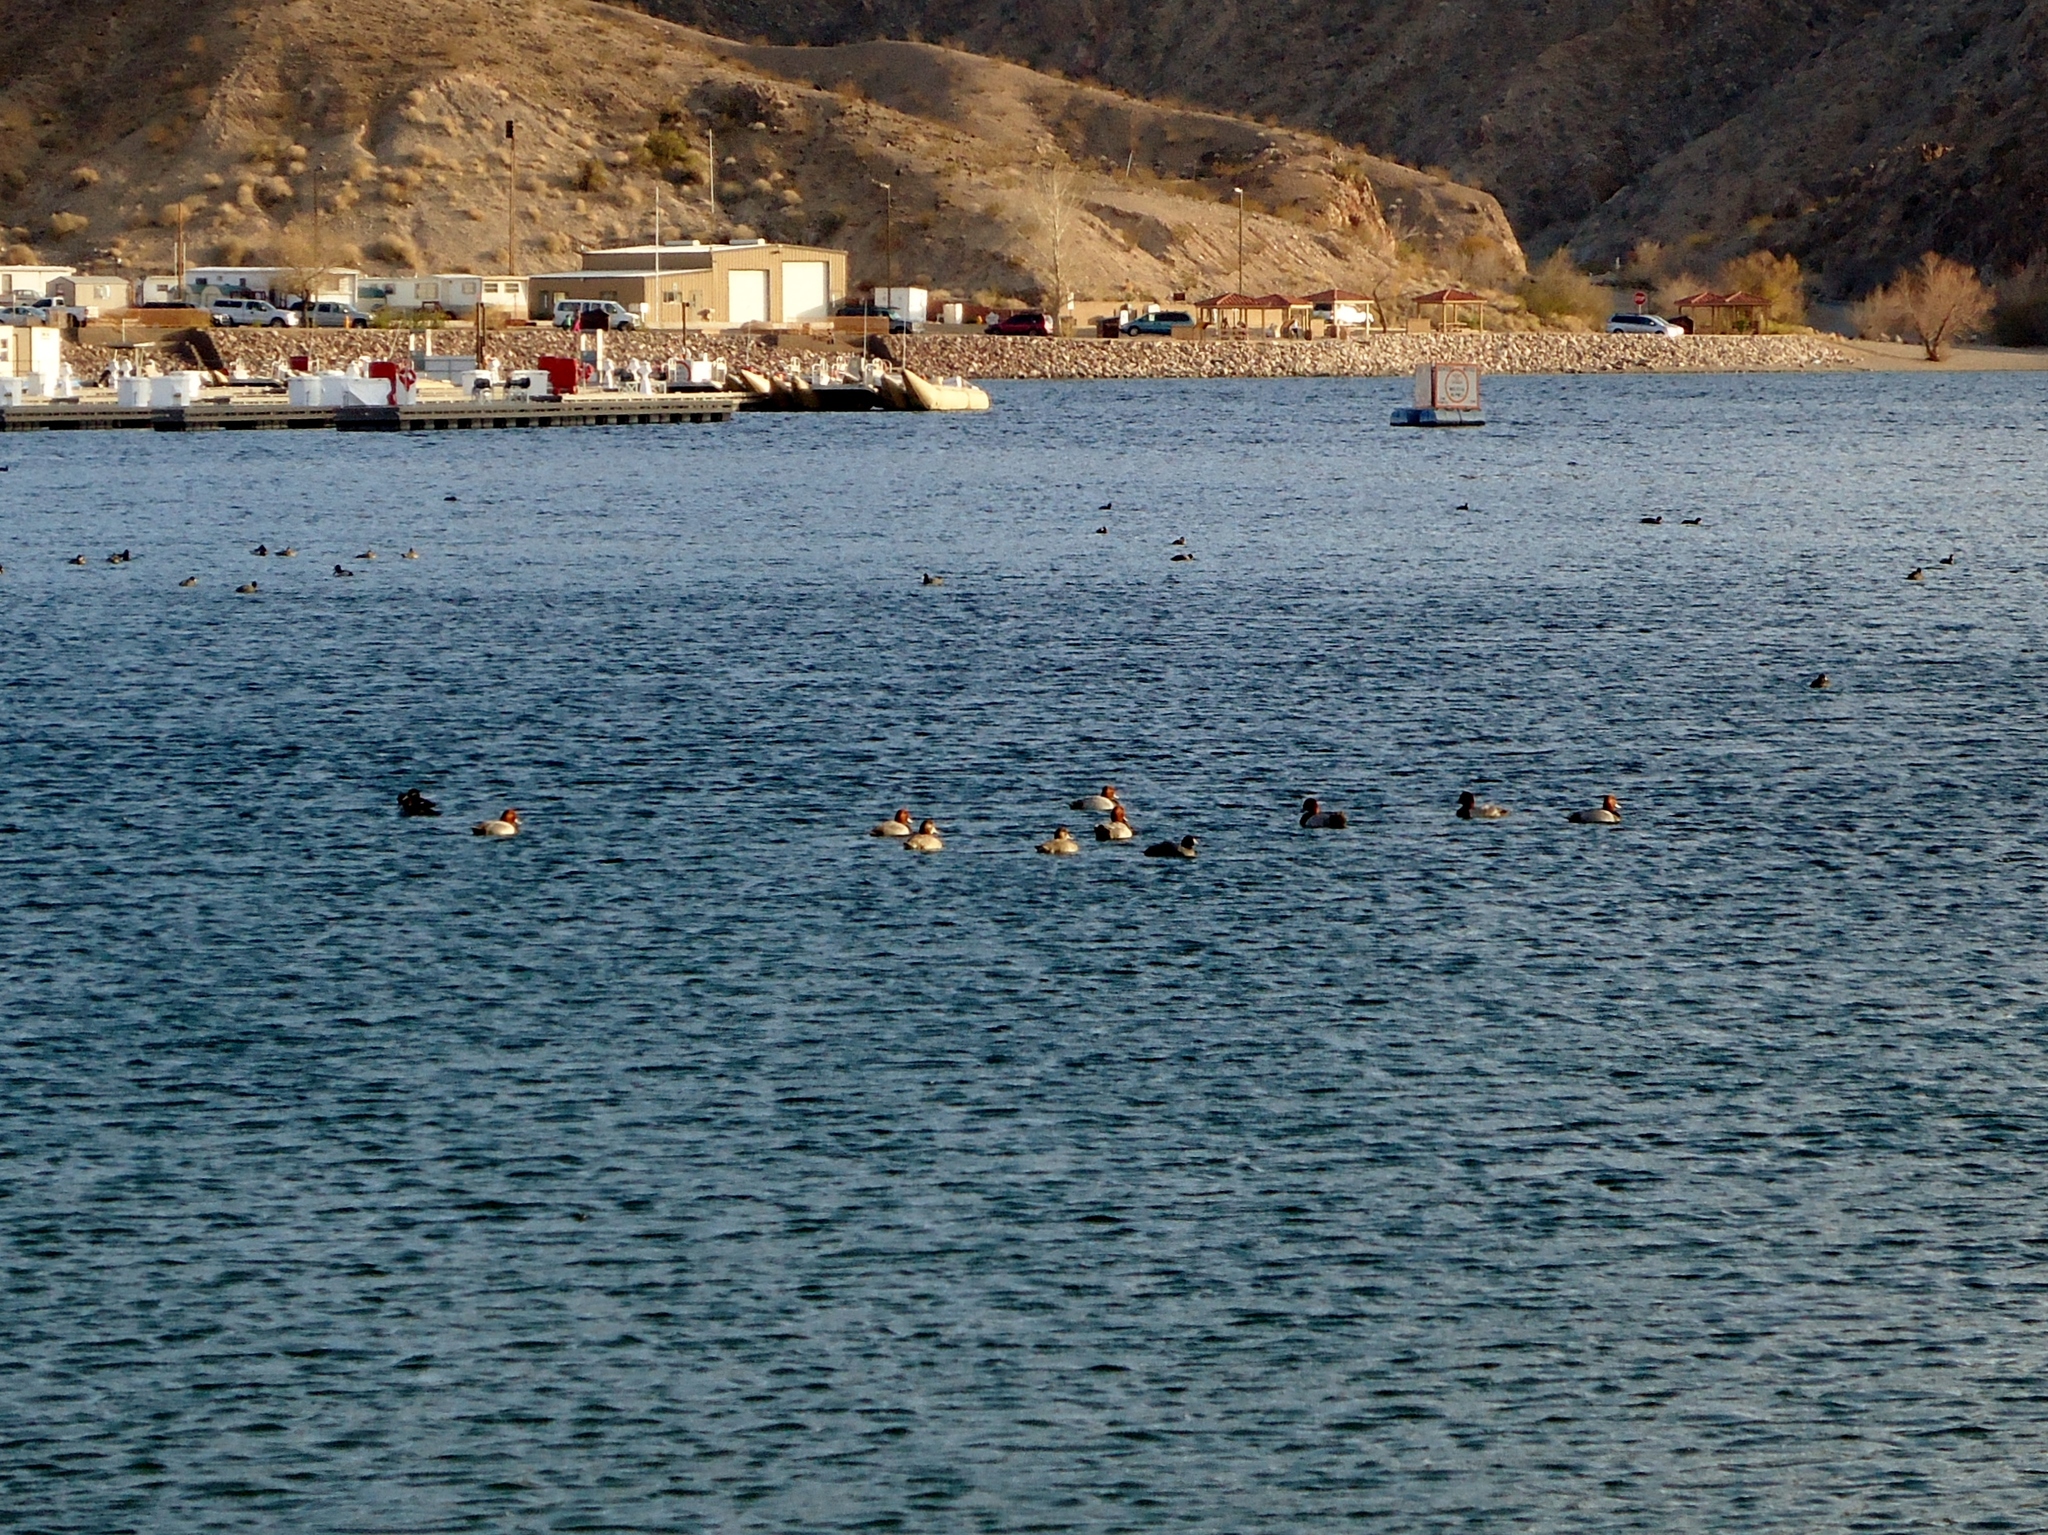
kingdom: Animalia
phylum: Chordata
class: Aves
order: Anseriformes
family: Anatidae
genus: Aythya
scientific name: Aythya americana
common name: Redhead
